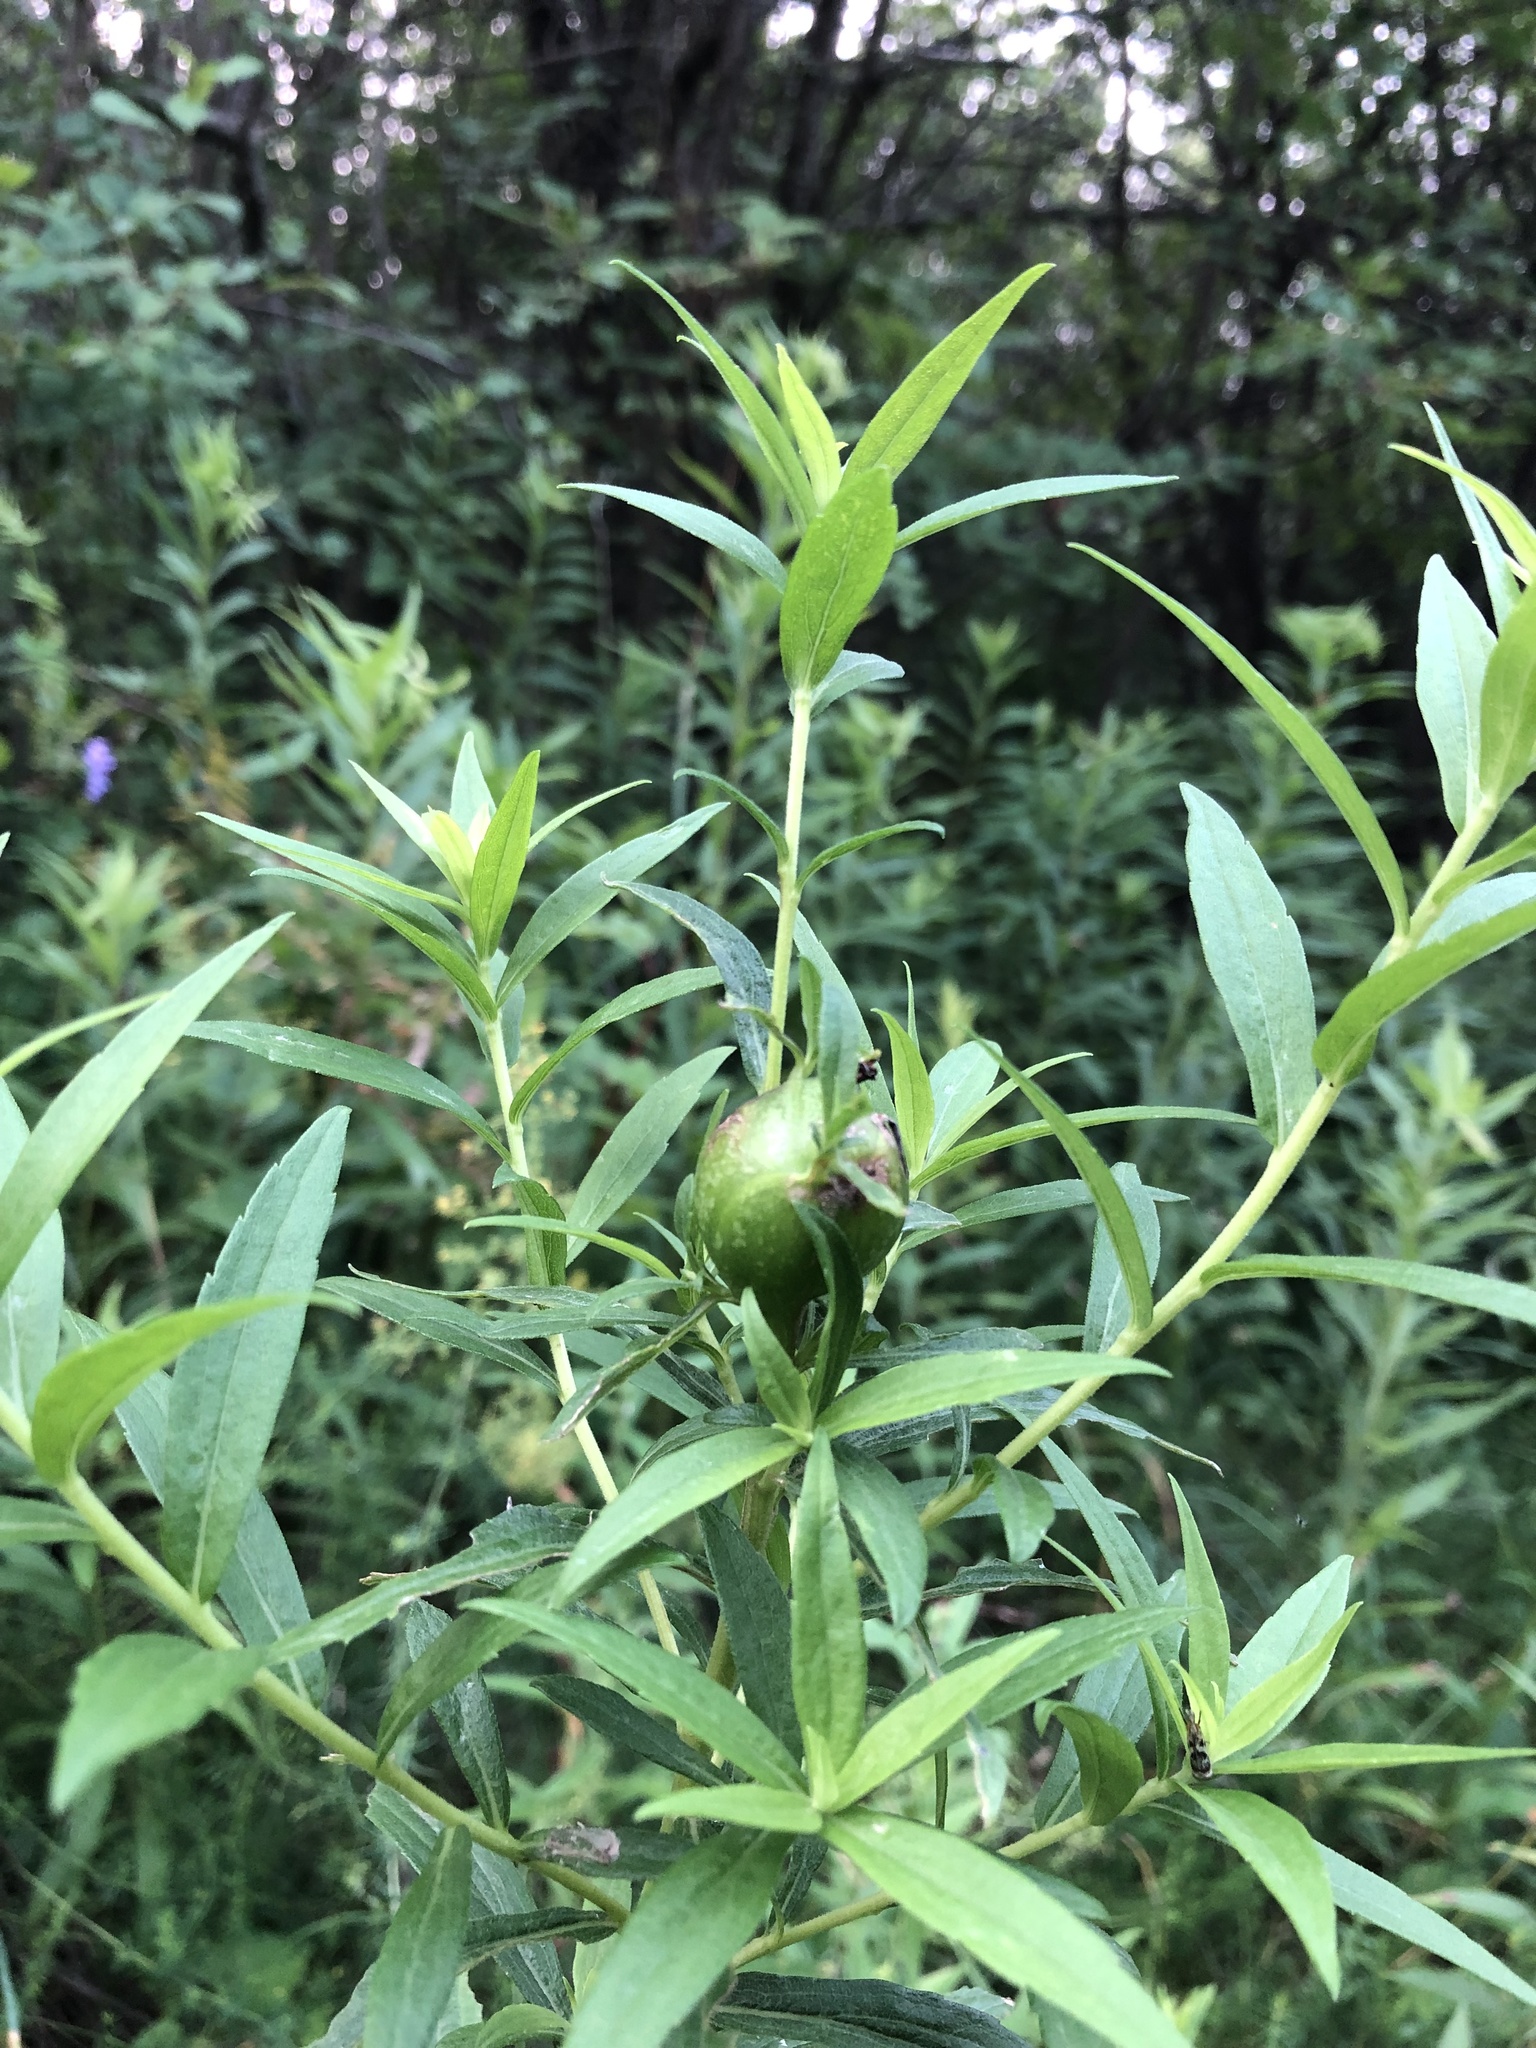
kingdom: Animalia
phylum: Arthropoda
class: Insecta
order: Diptera
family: Tephritidae
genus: Eurosta
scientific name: Eurosta solidaginis
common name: Goldenrod gall fly
